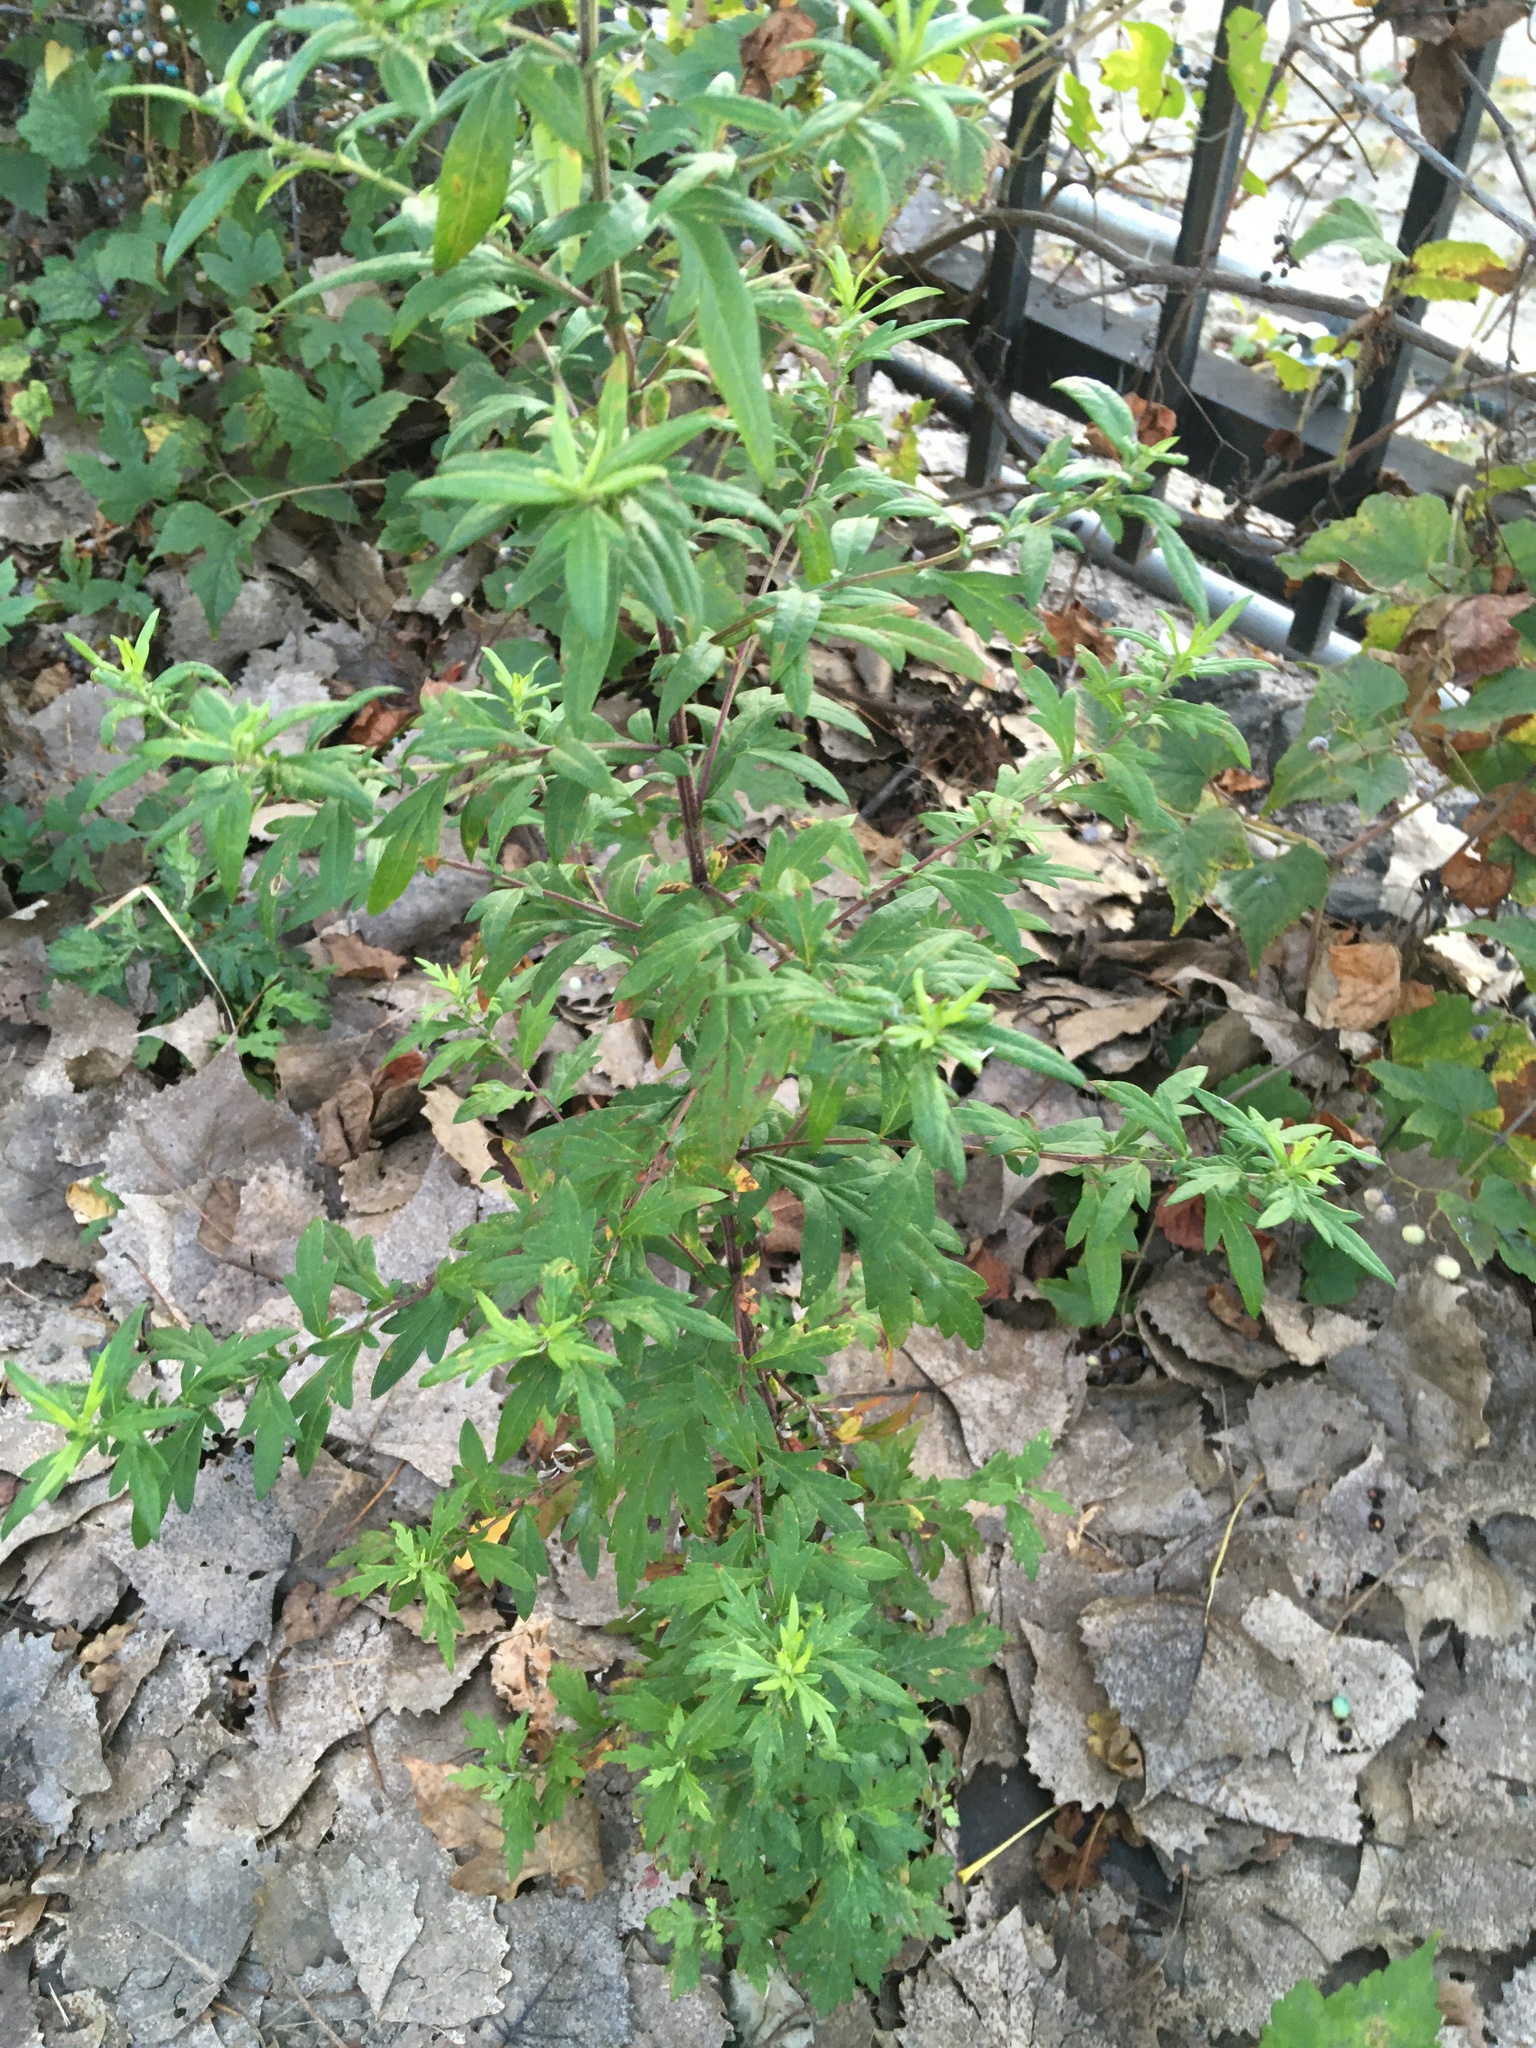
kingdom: Plantae
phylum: Tracheophyta
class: Magnoliopsida
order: Asterales
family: Asteraceae
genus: Artemisia
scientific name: Artemisia vulgaris
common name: Mugwort
